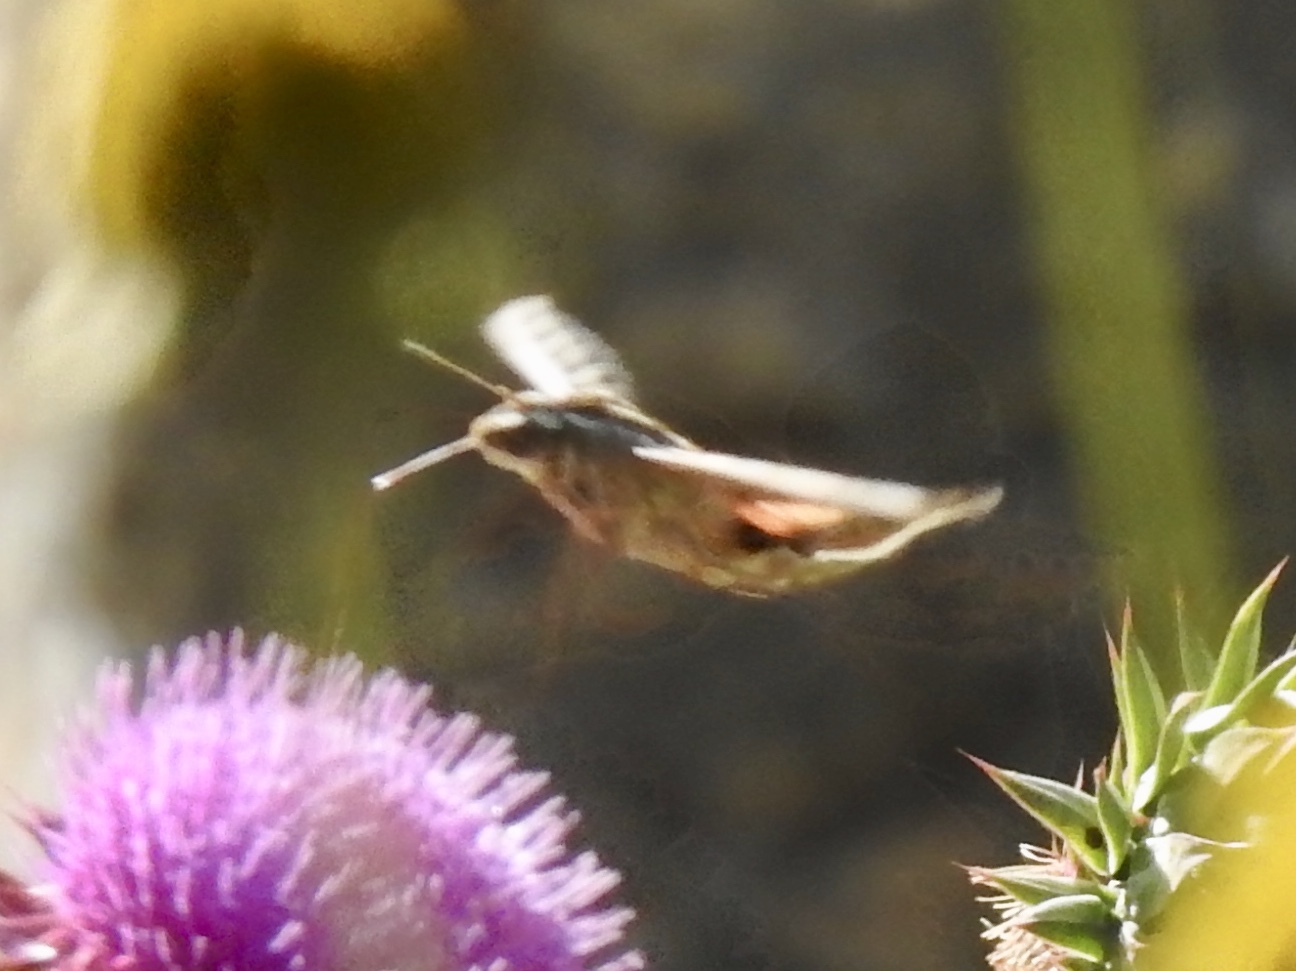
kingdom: Animalia
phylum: Arthropoda
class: Insecta
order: Lepidoptera
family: Sphingidae
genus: Hyles
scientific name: Hyles lineata
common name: White-lined sphinx
